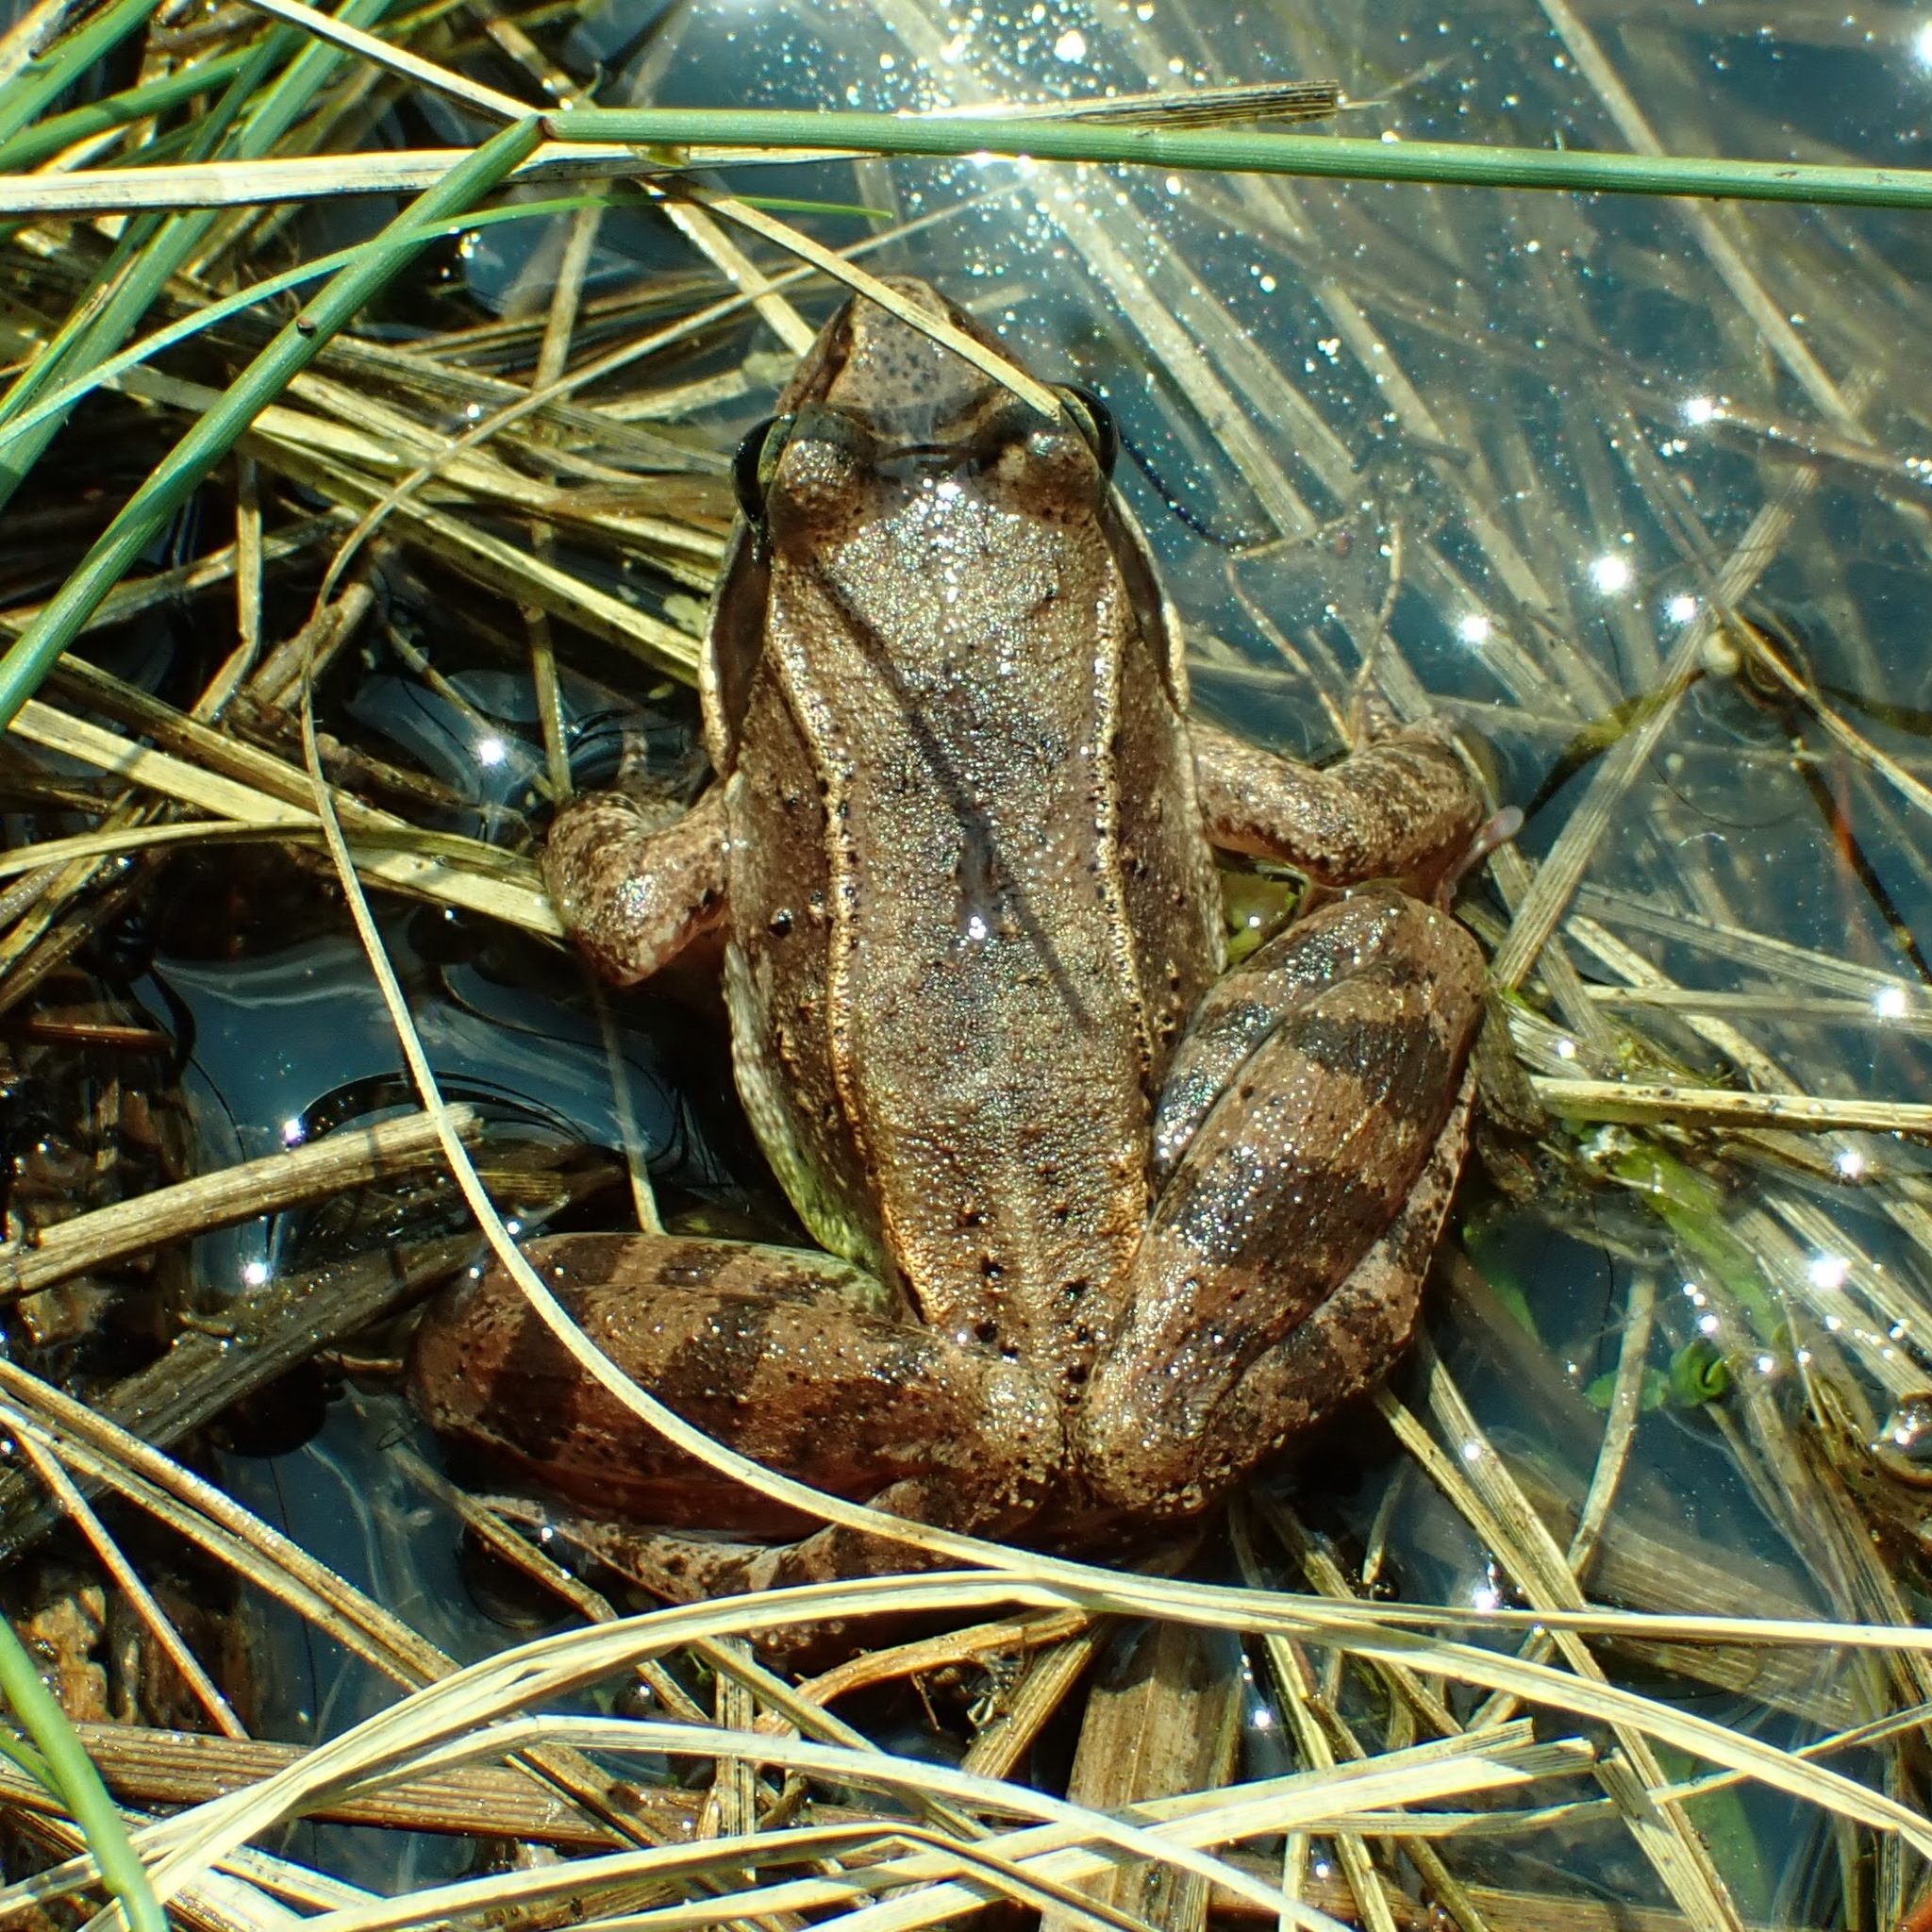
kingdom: Animalia
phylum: Chordata
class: Amphibia
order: Anura
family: Ranidae
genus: Lithobates
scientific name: Lithobates sylvaticus
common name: Wood frog
